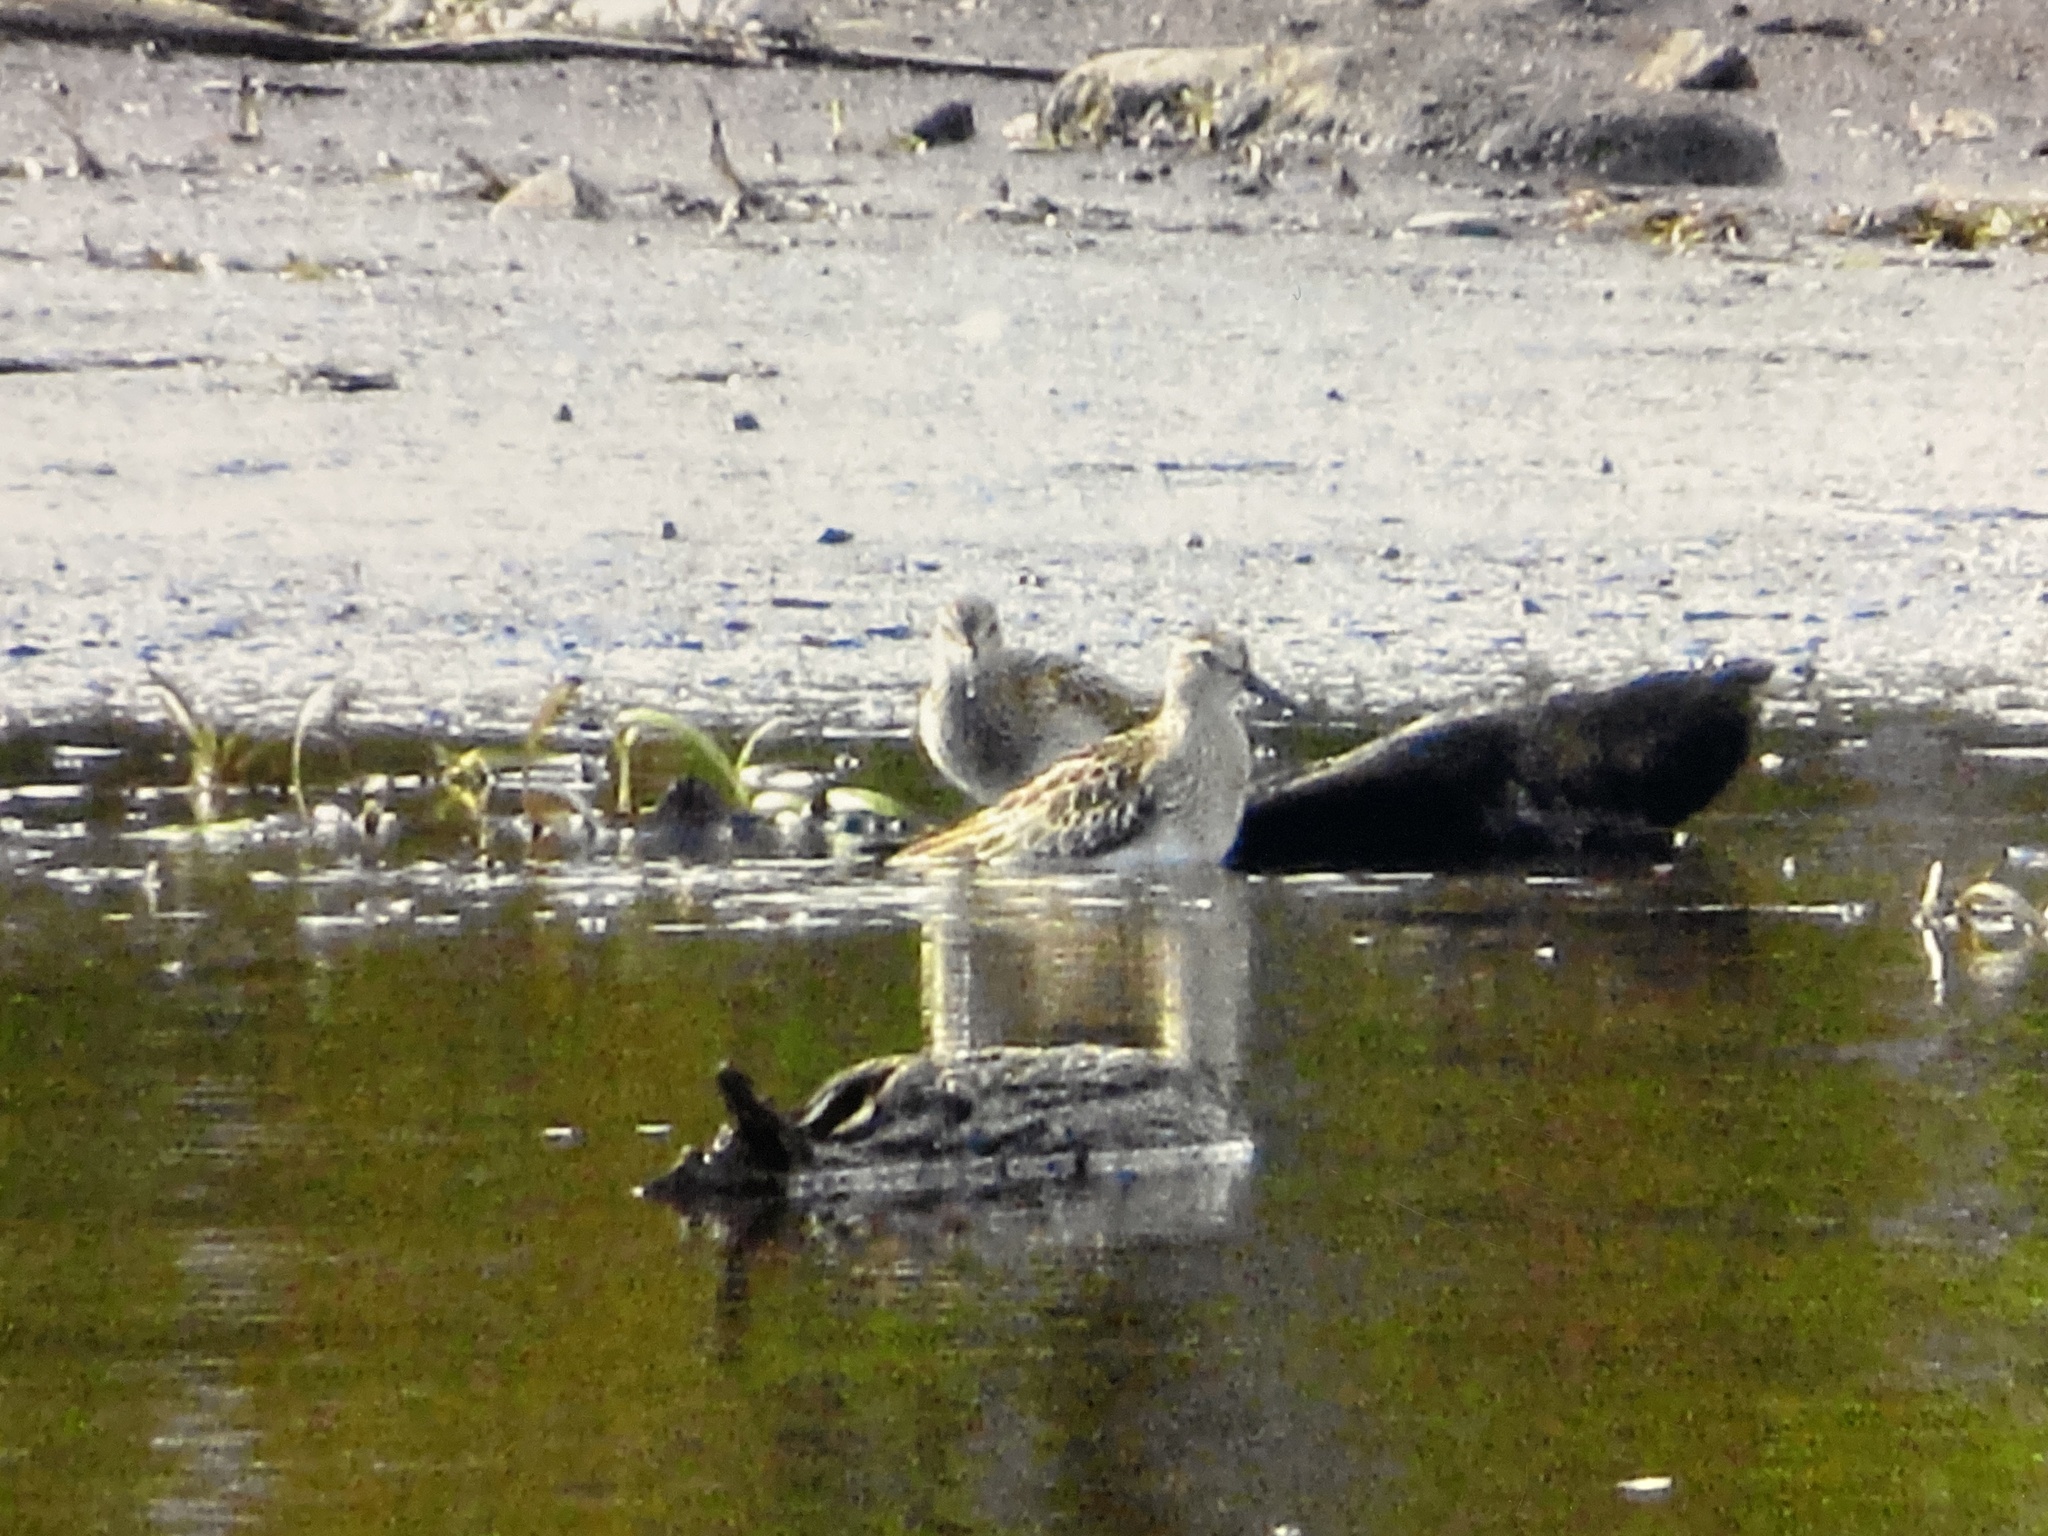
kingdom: Animalia
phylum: Chordata
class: Aves
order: Charadriiformes
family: Scolopacidae
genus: Calidris
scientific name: Calidris melanotos
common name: Pectoral sandpiper
